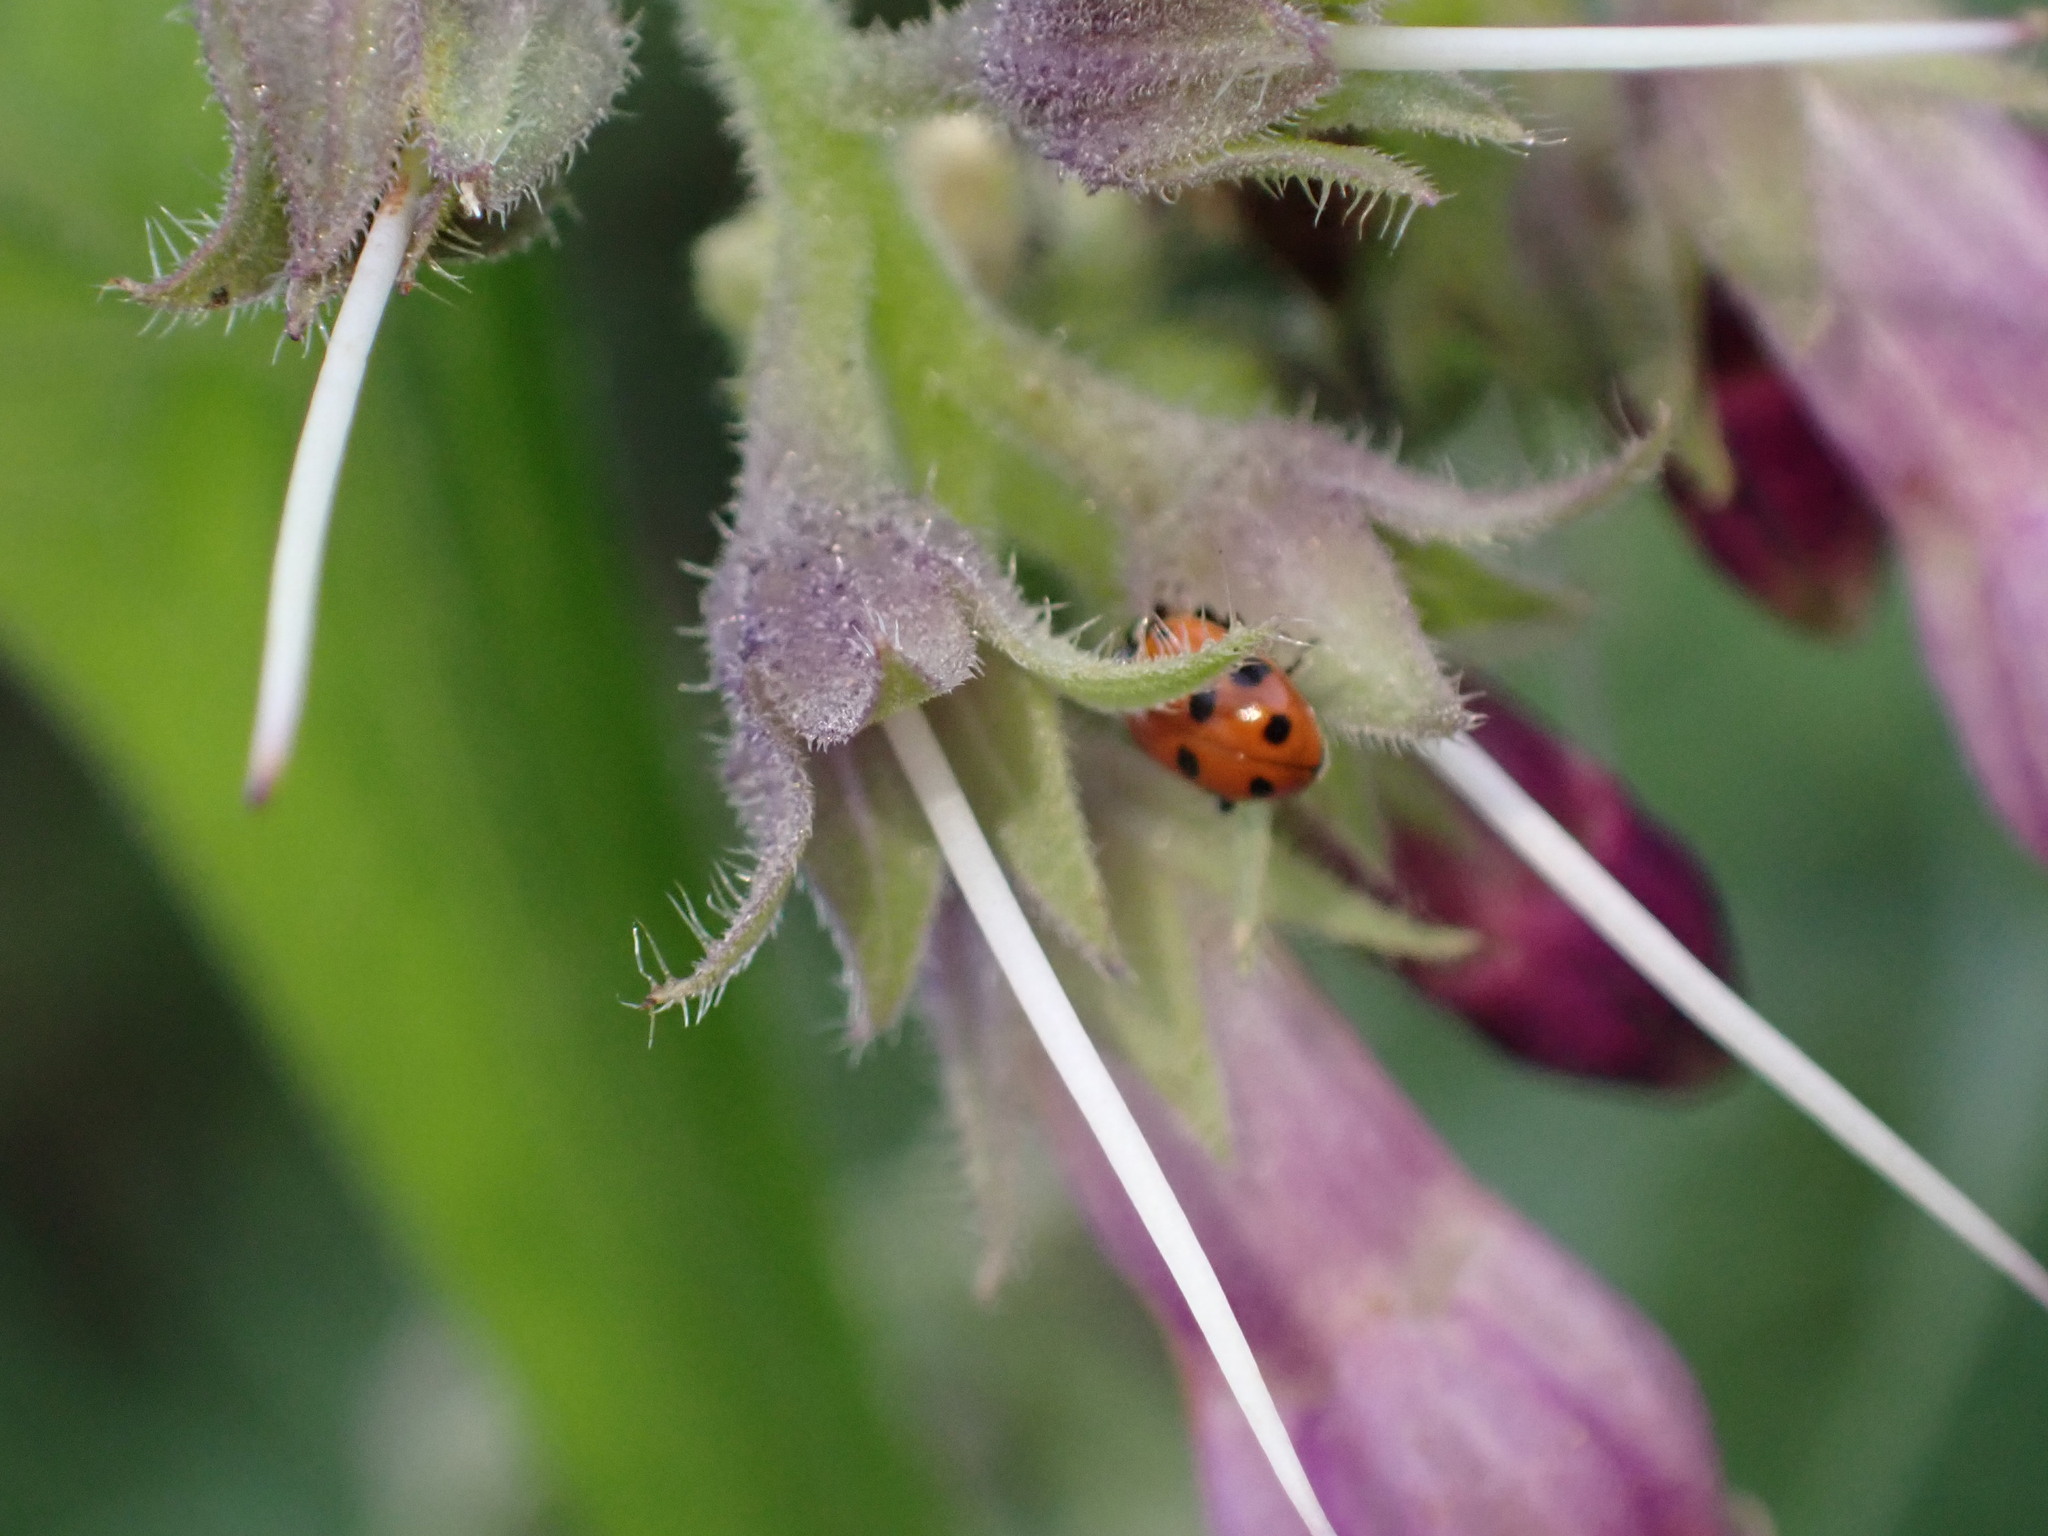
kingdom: Animalia
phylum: Arthropoda
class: Insecta
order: Coleoptera
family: Coccinellidae
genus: Hippodamia
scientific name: Hippodamia variegata
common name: Ladybird beetle
